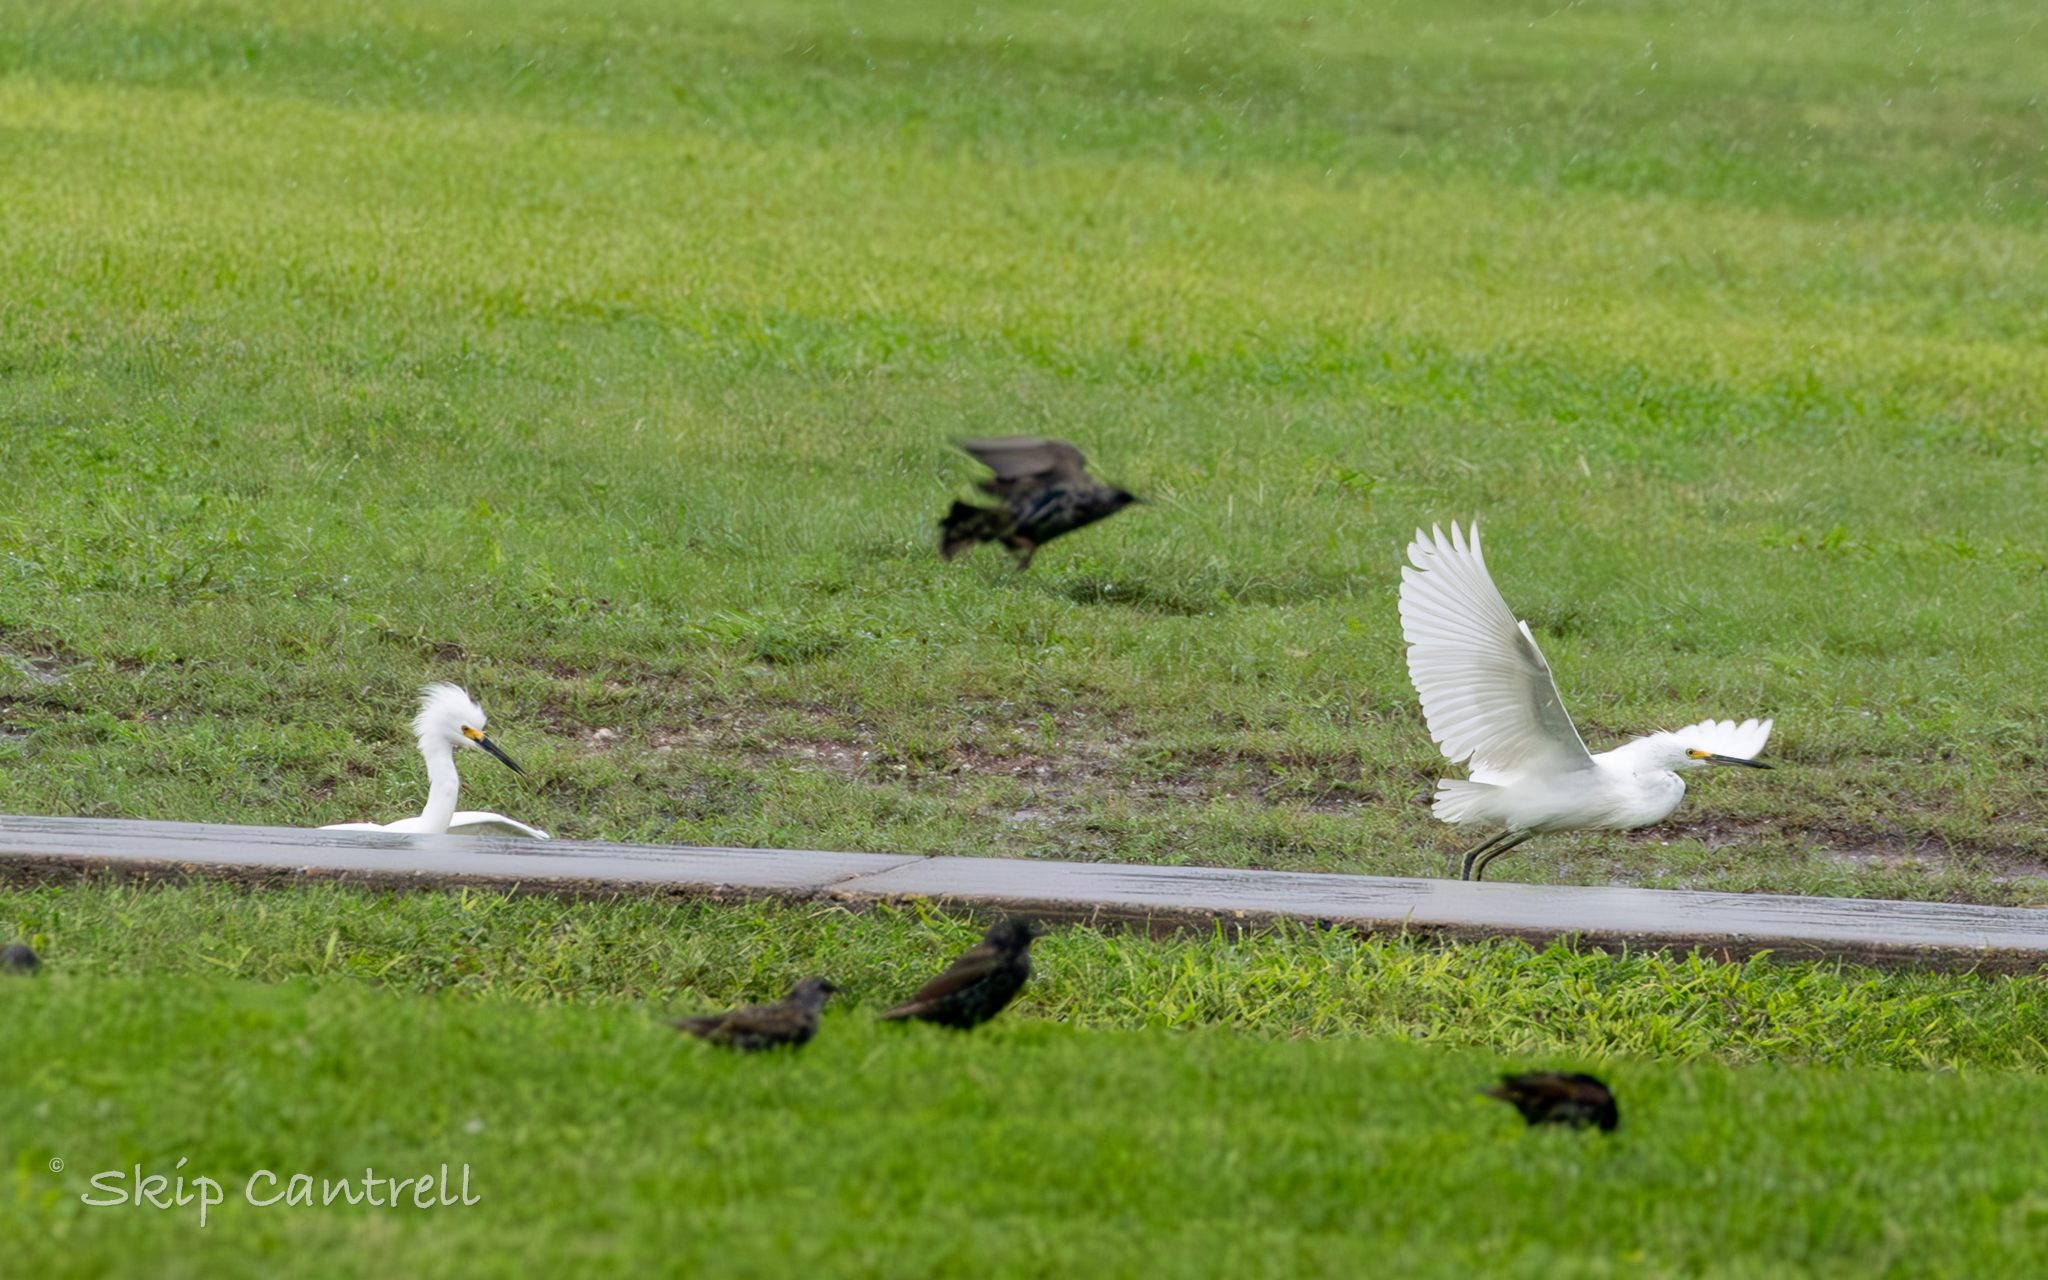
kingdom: Animalia
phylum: Chordata
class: Aves
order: Pelecaniformes
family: Ardeidae
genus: Egretta
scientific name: Egretta thula
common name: Snowy egret
